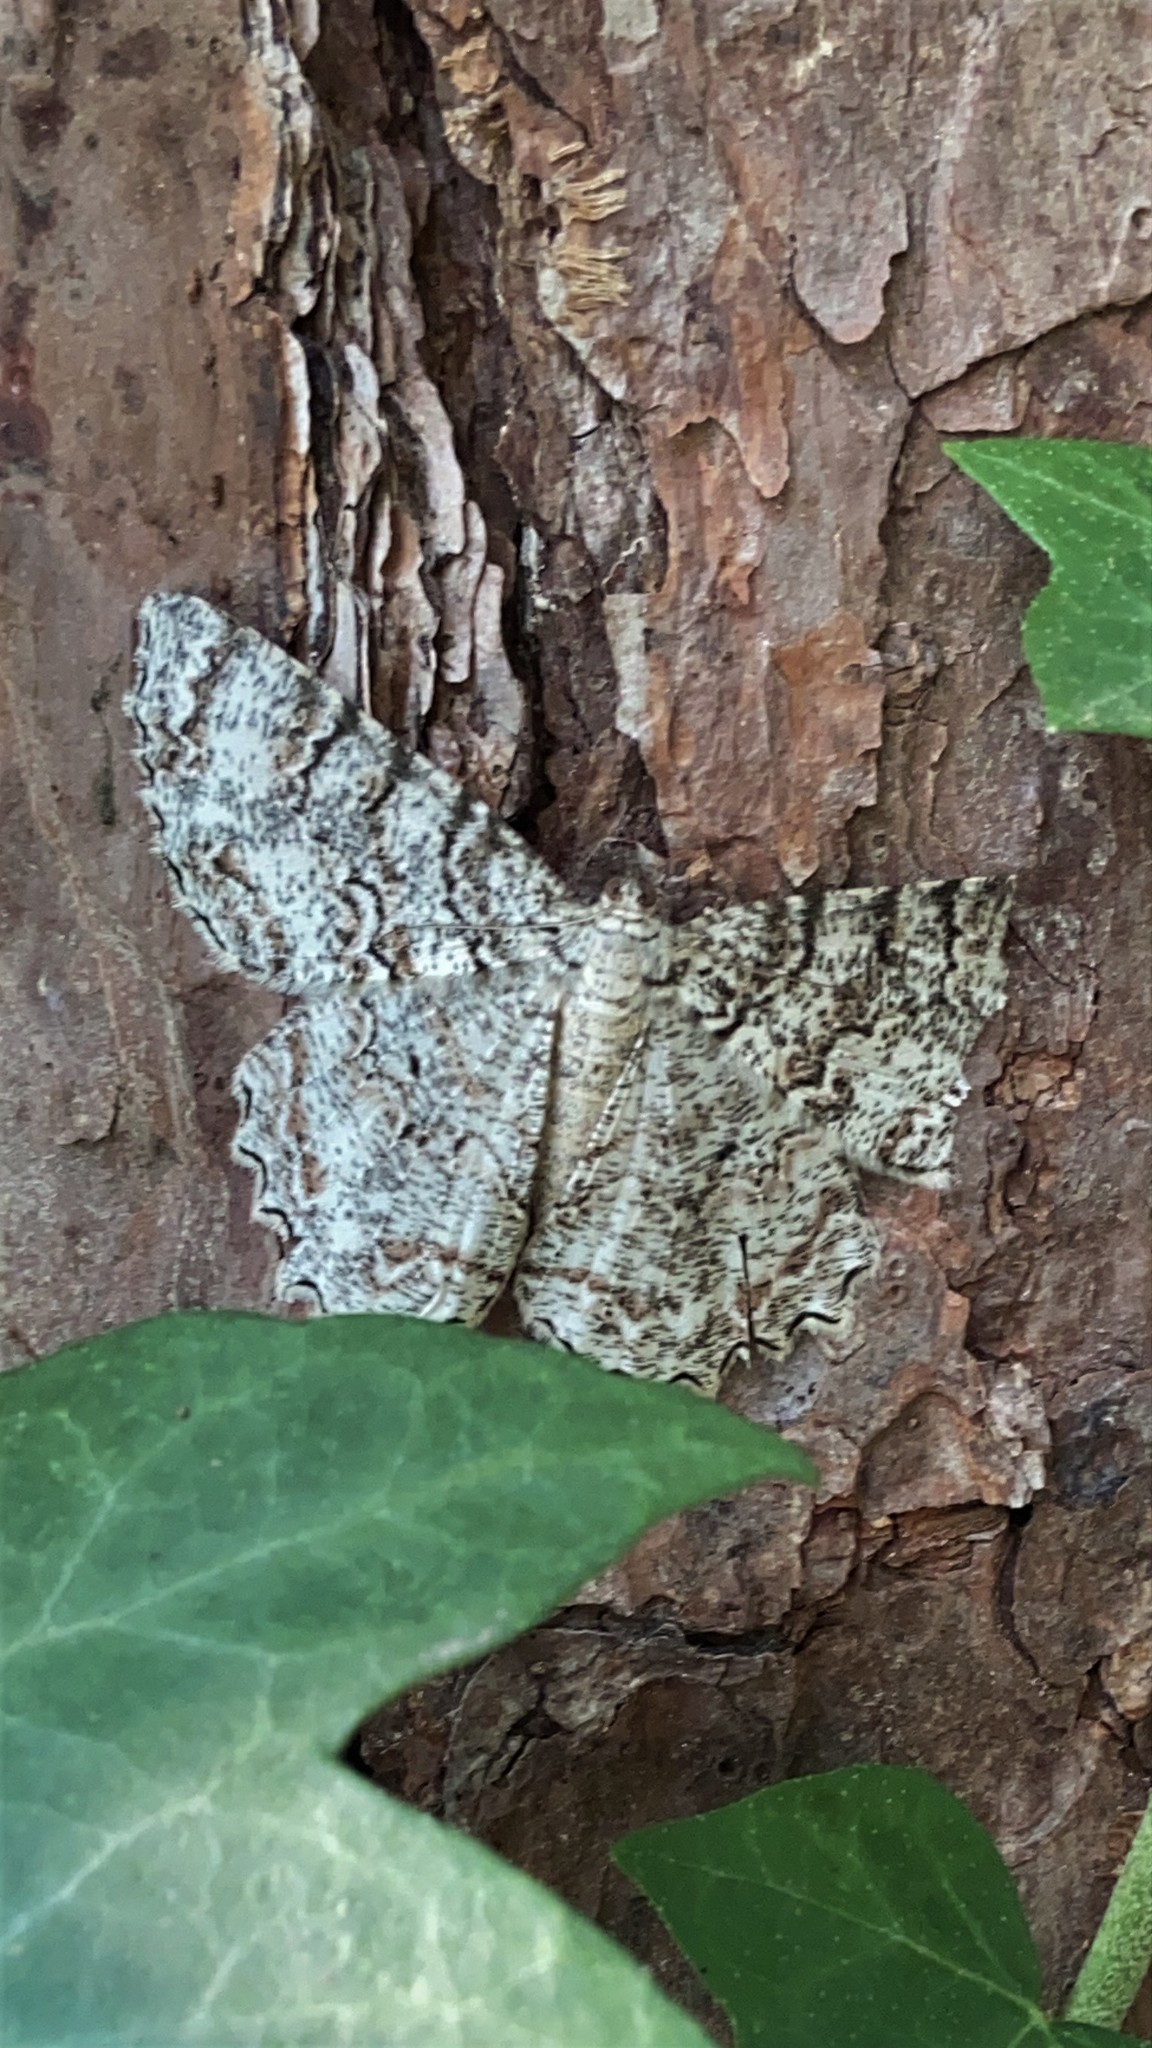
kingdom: Animalia
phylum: Arthropoda
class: Insecta
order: Lepidoptera
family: Geometridae
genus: Epimecis
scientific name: Epimecis hortaria
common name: Tulip-tree beauty
